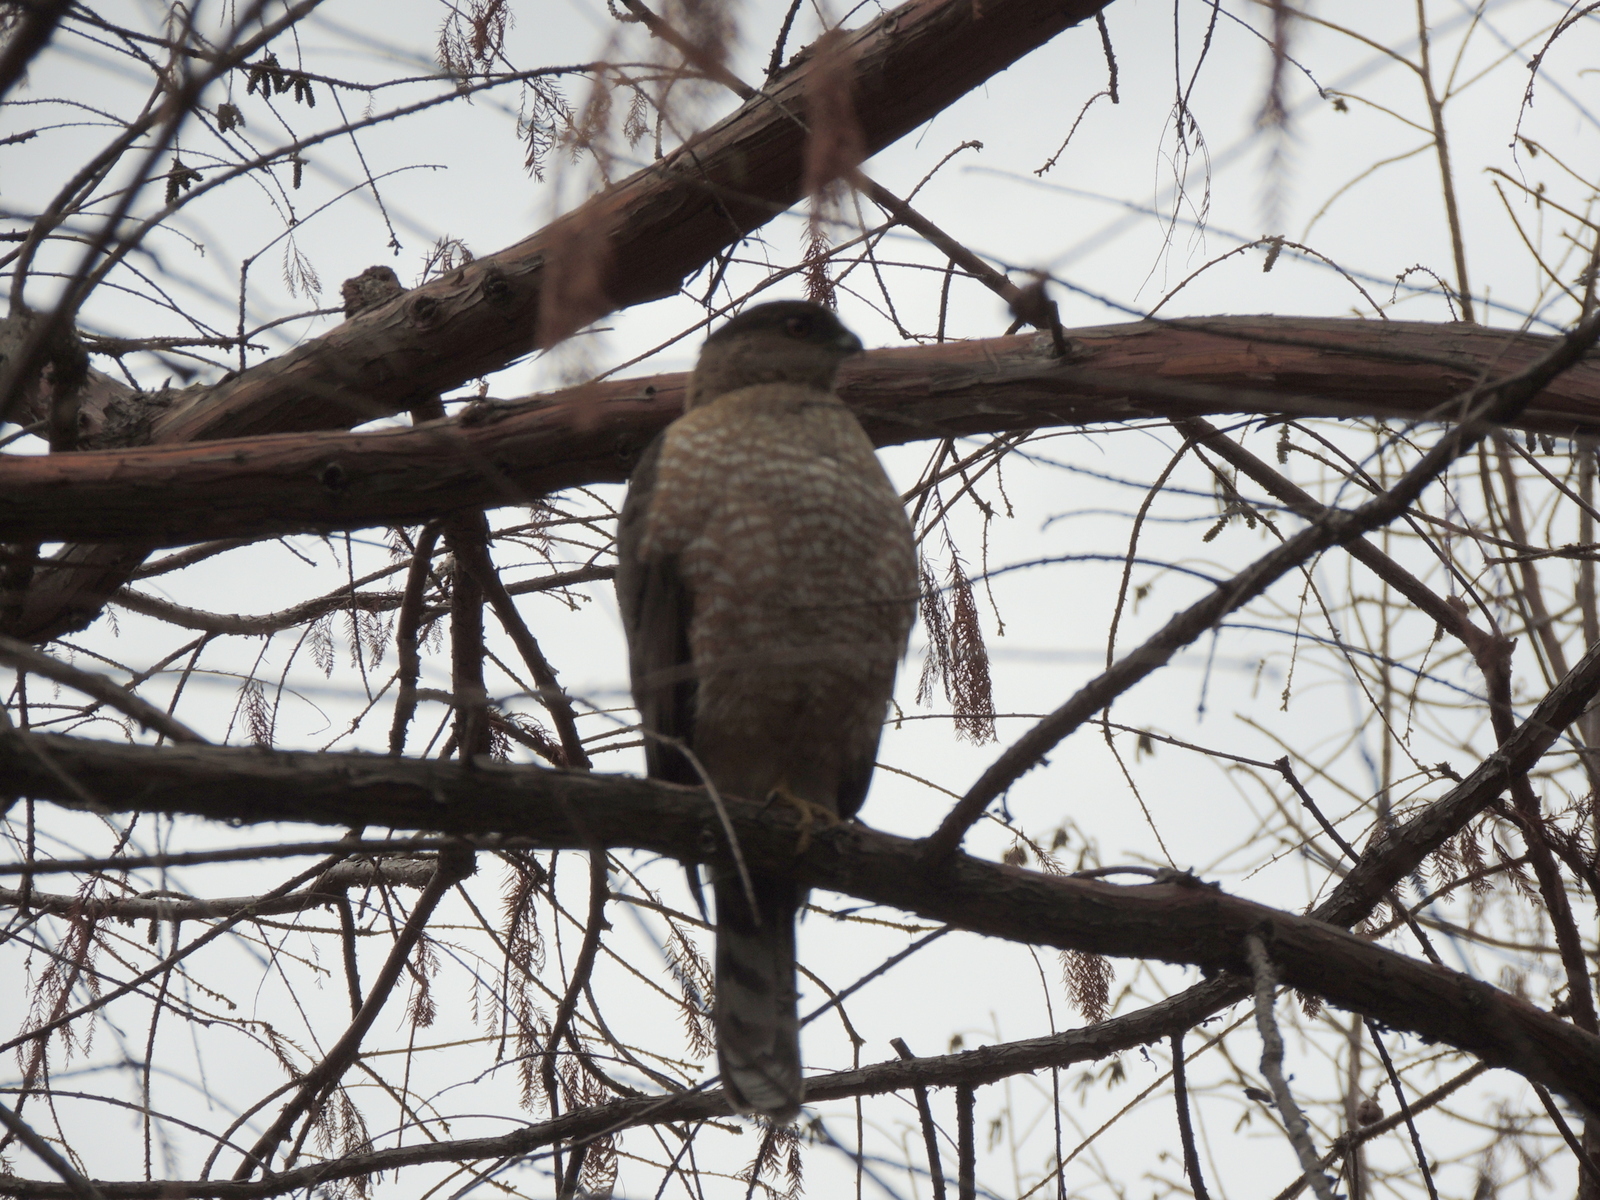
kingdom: Animalia
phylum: Chordata
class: Aves
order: Accipitriformes
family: Accipitridae
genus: Accipiter
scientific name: Accipiter cooperii
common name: Cooper's hawk
